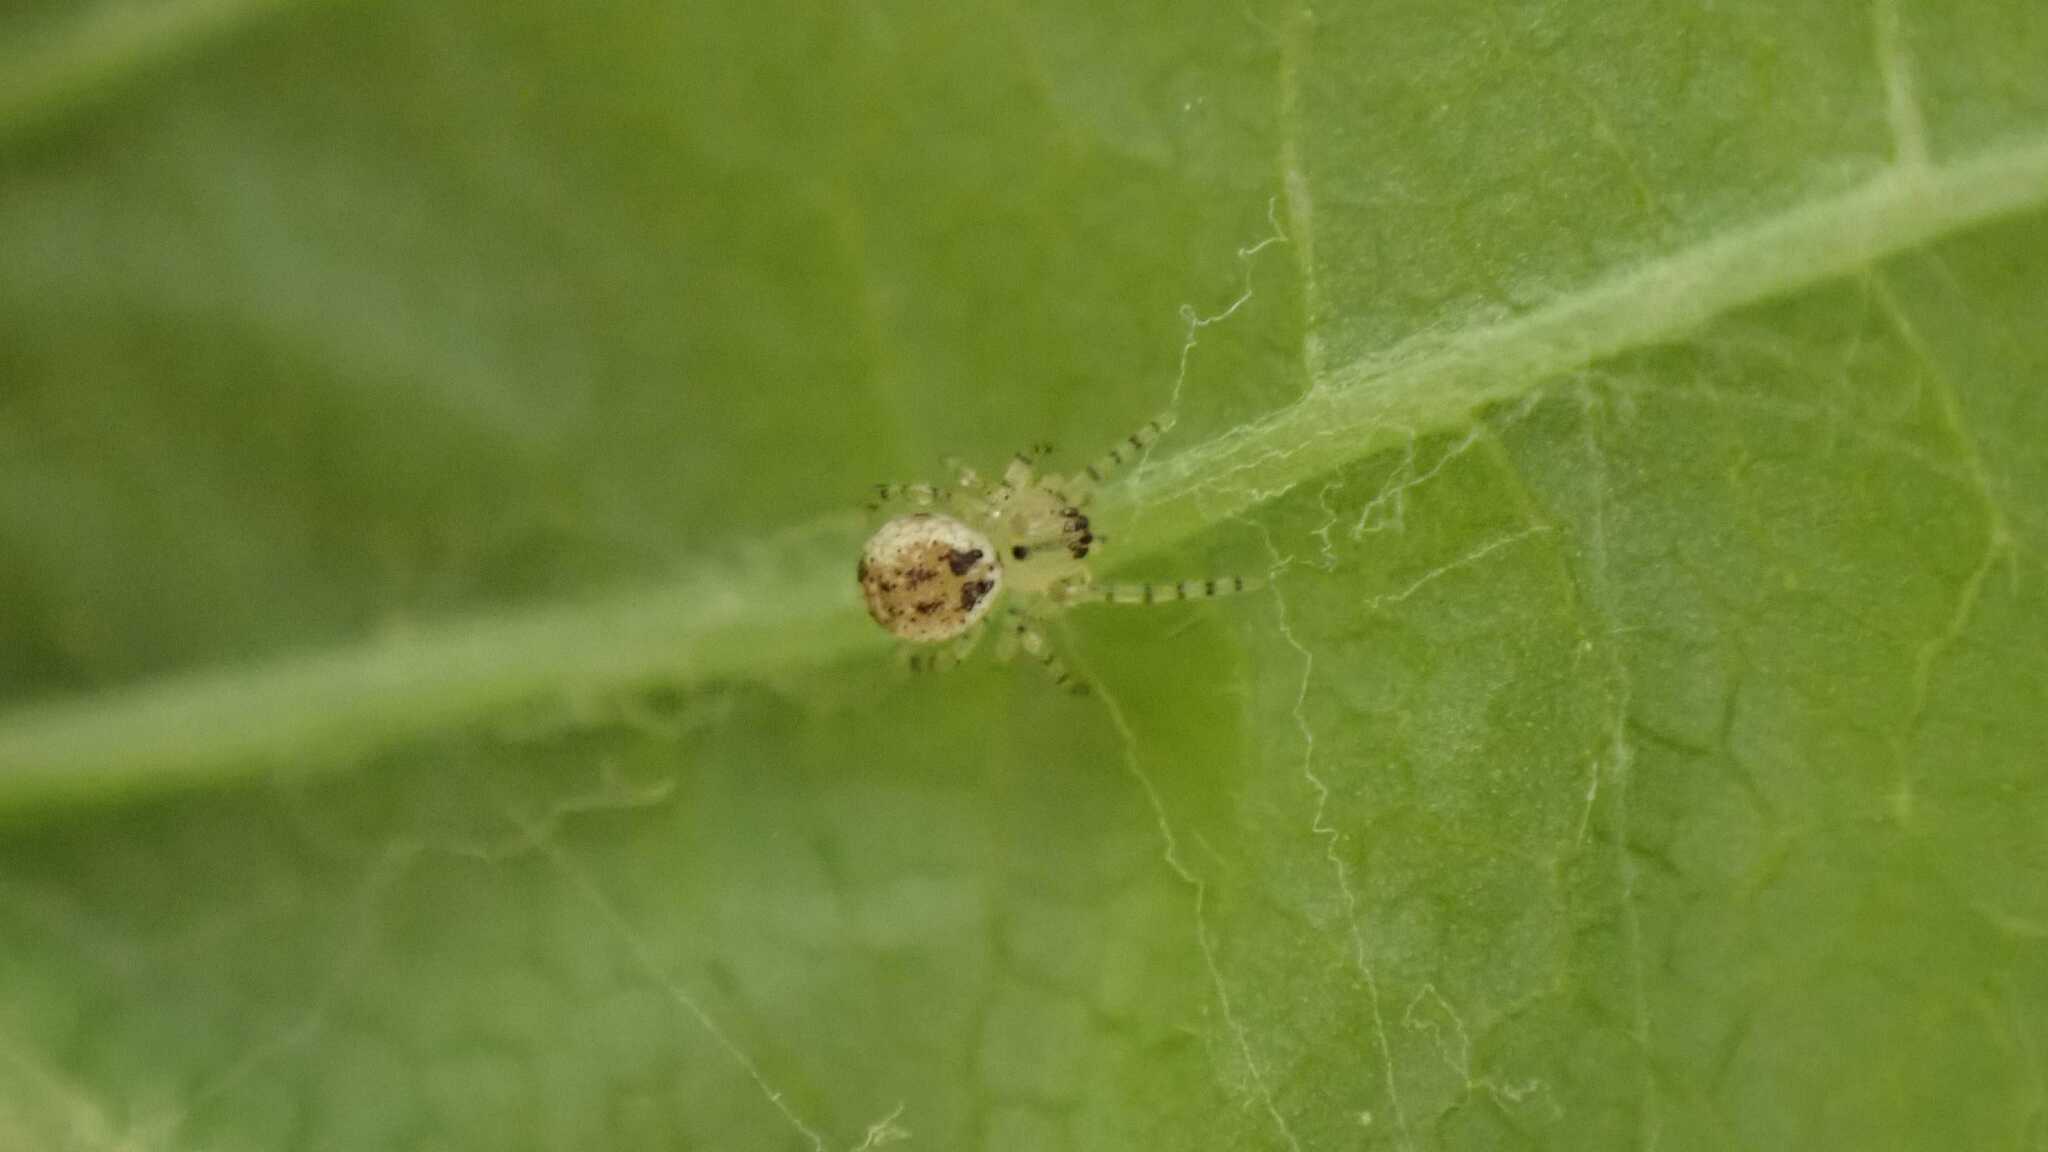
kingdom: Animalia
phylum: Arthropoda
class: Arachnida
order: Araneae
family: Theridiidae
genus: Platnickina
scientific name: Platnickina tincta
